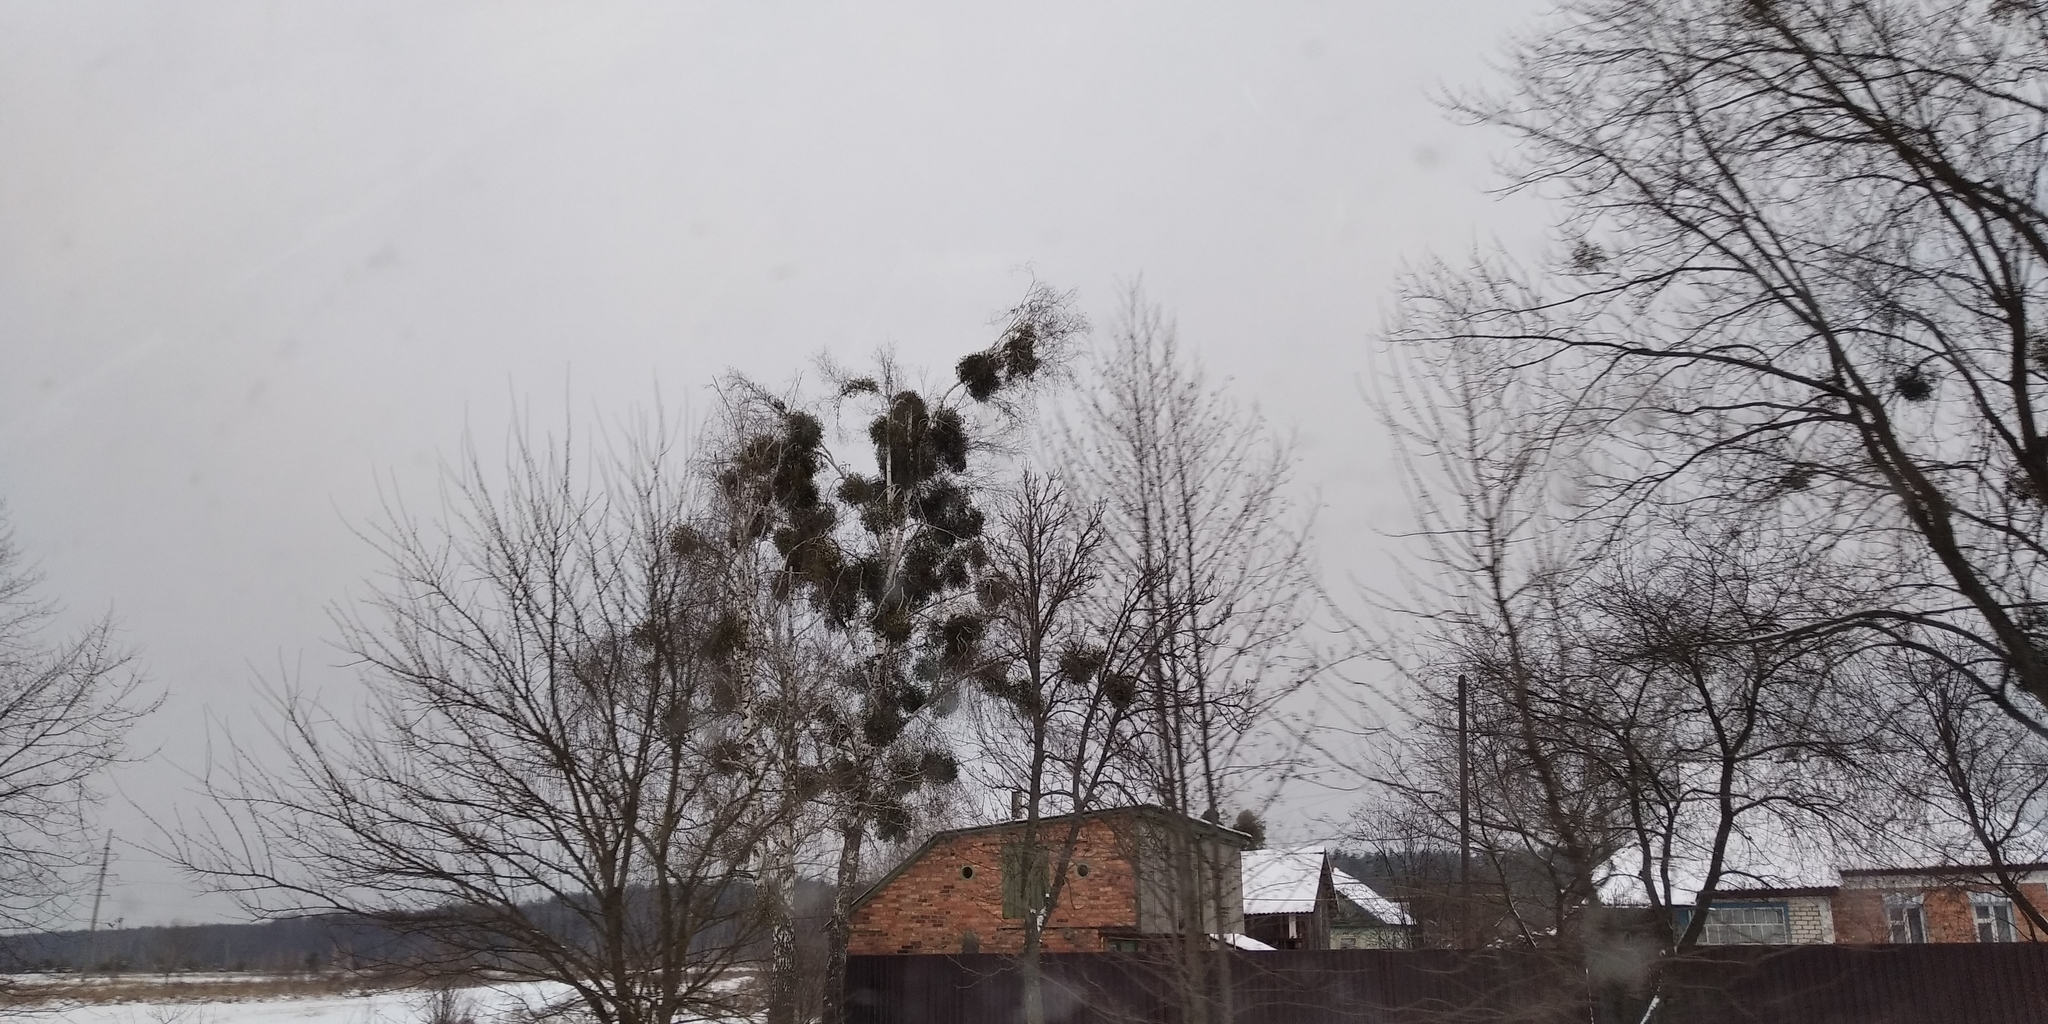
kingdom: Plantae
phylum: Tracheophyta
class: Magnoliopsida
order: Santalales
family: Viscaceae
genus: Viscum
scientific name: Viscum album
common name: Mistletoe
